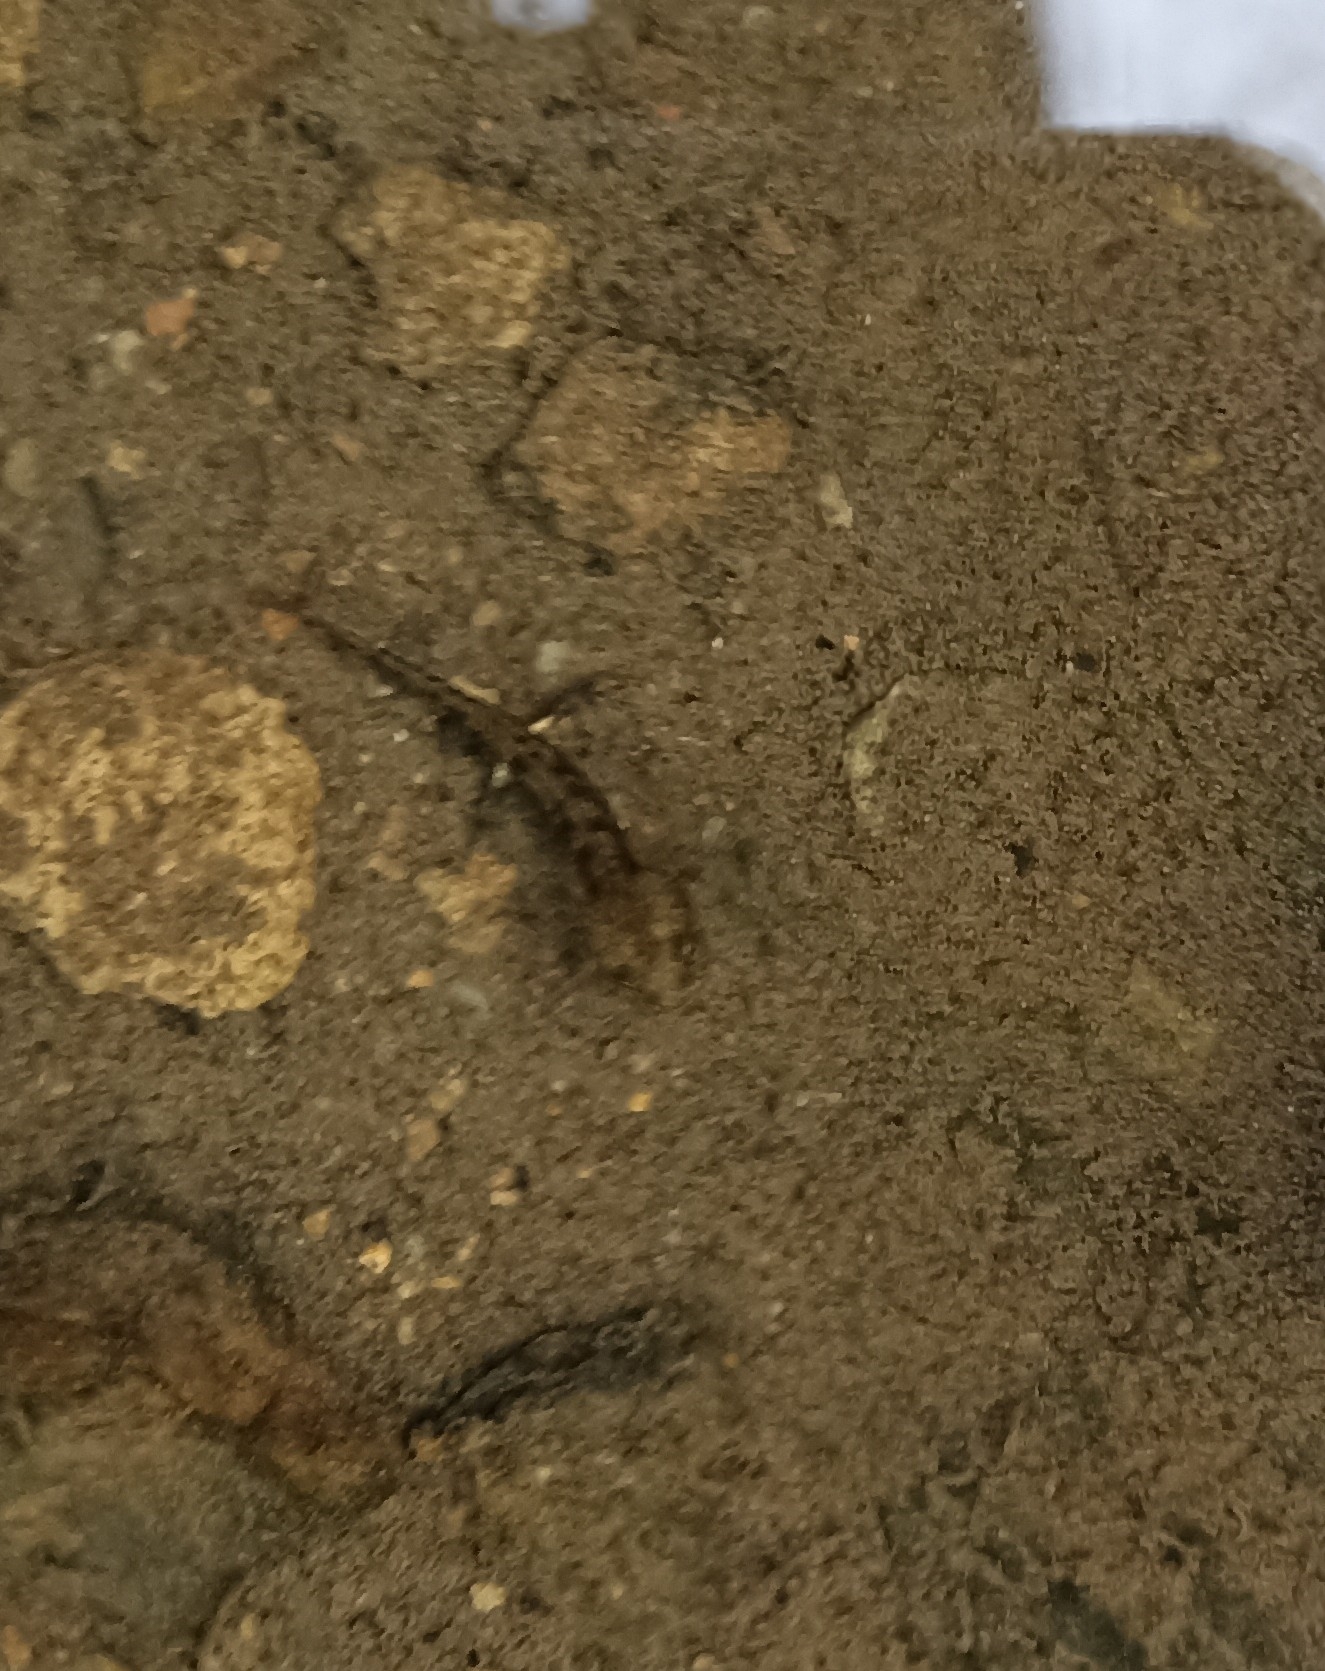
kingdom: Animalia
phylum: Chordata
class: Amphibia
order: Caudata
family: Salamandridae
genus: Salamandra
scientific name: Salamandra salamandra
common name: Fire salamander
